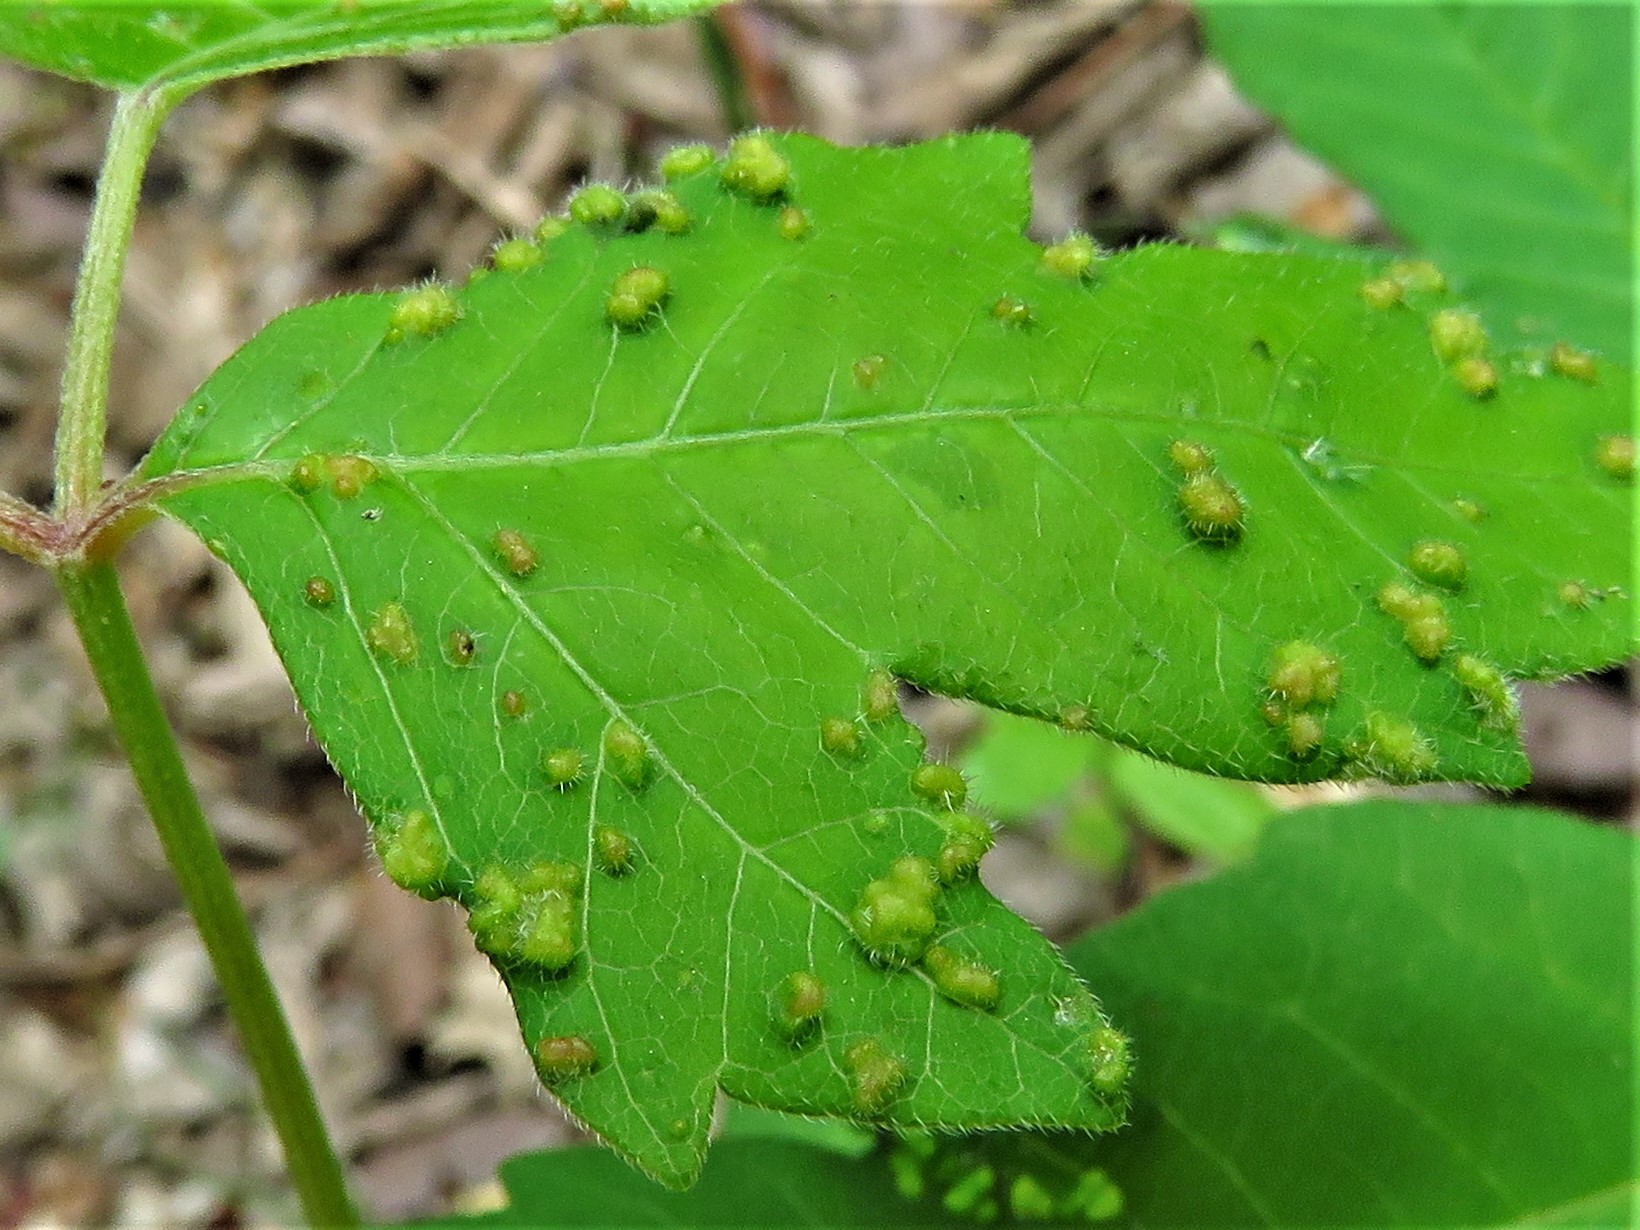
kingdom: Animalia
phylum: Arthropoda
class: Arachnida
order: Trombidiformes
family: Eriophyidae
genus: Aculops
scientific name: Aculops
